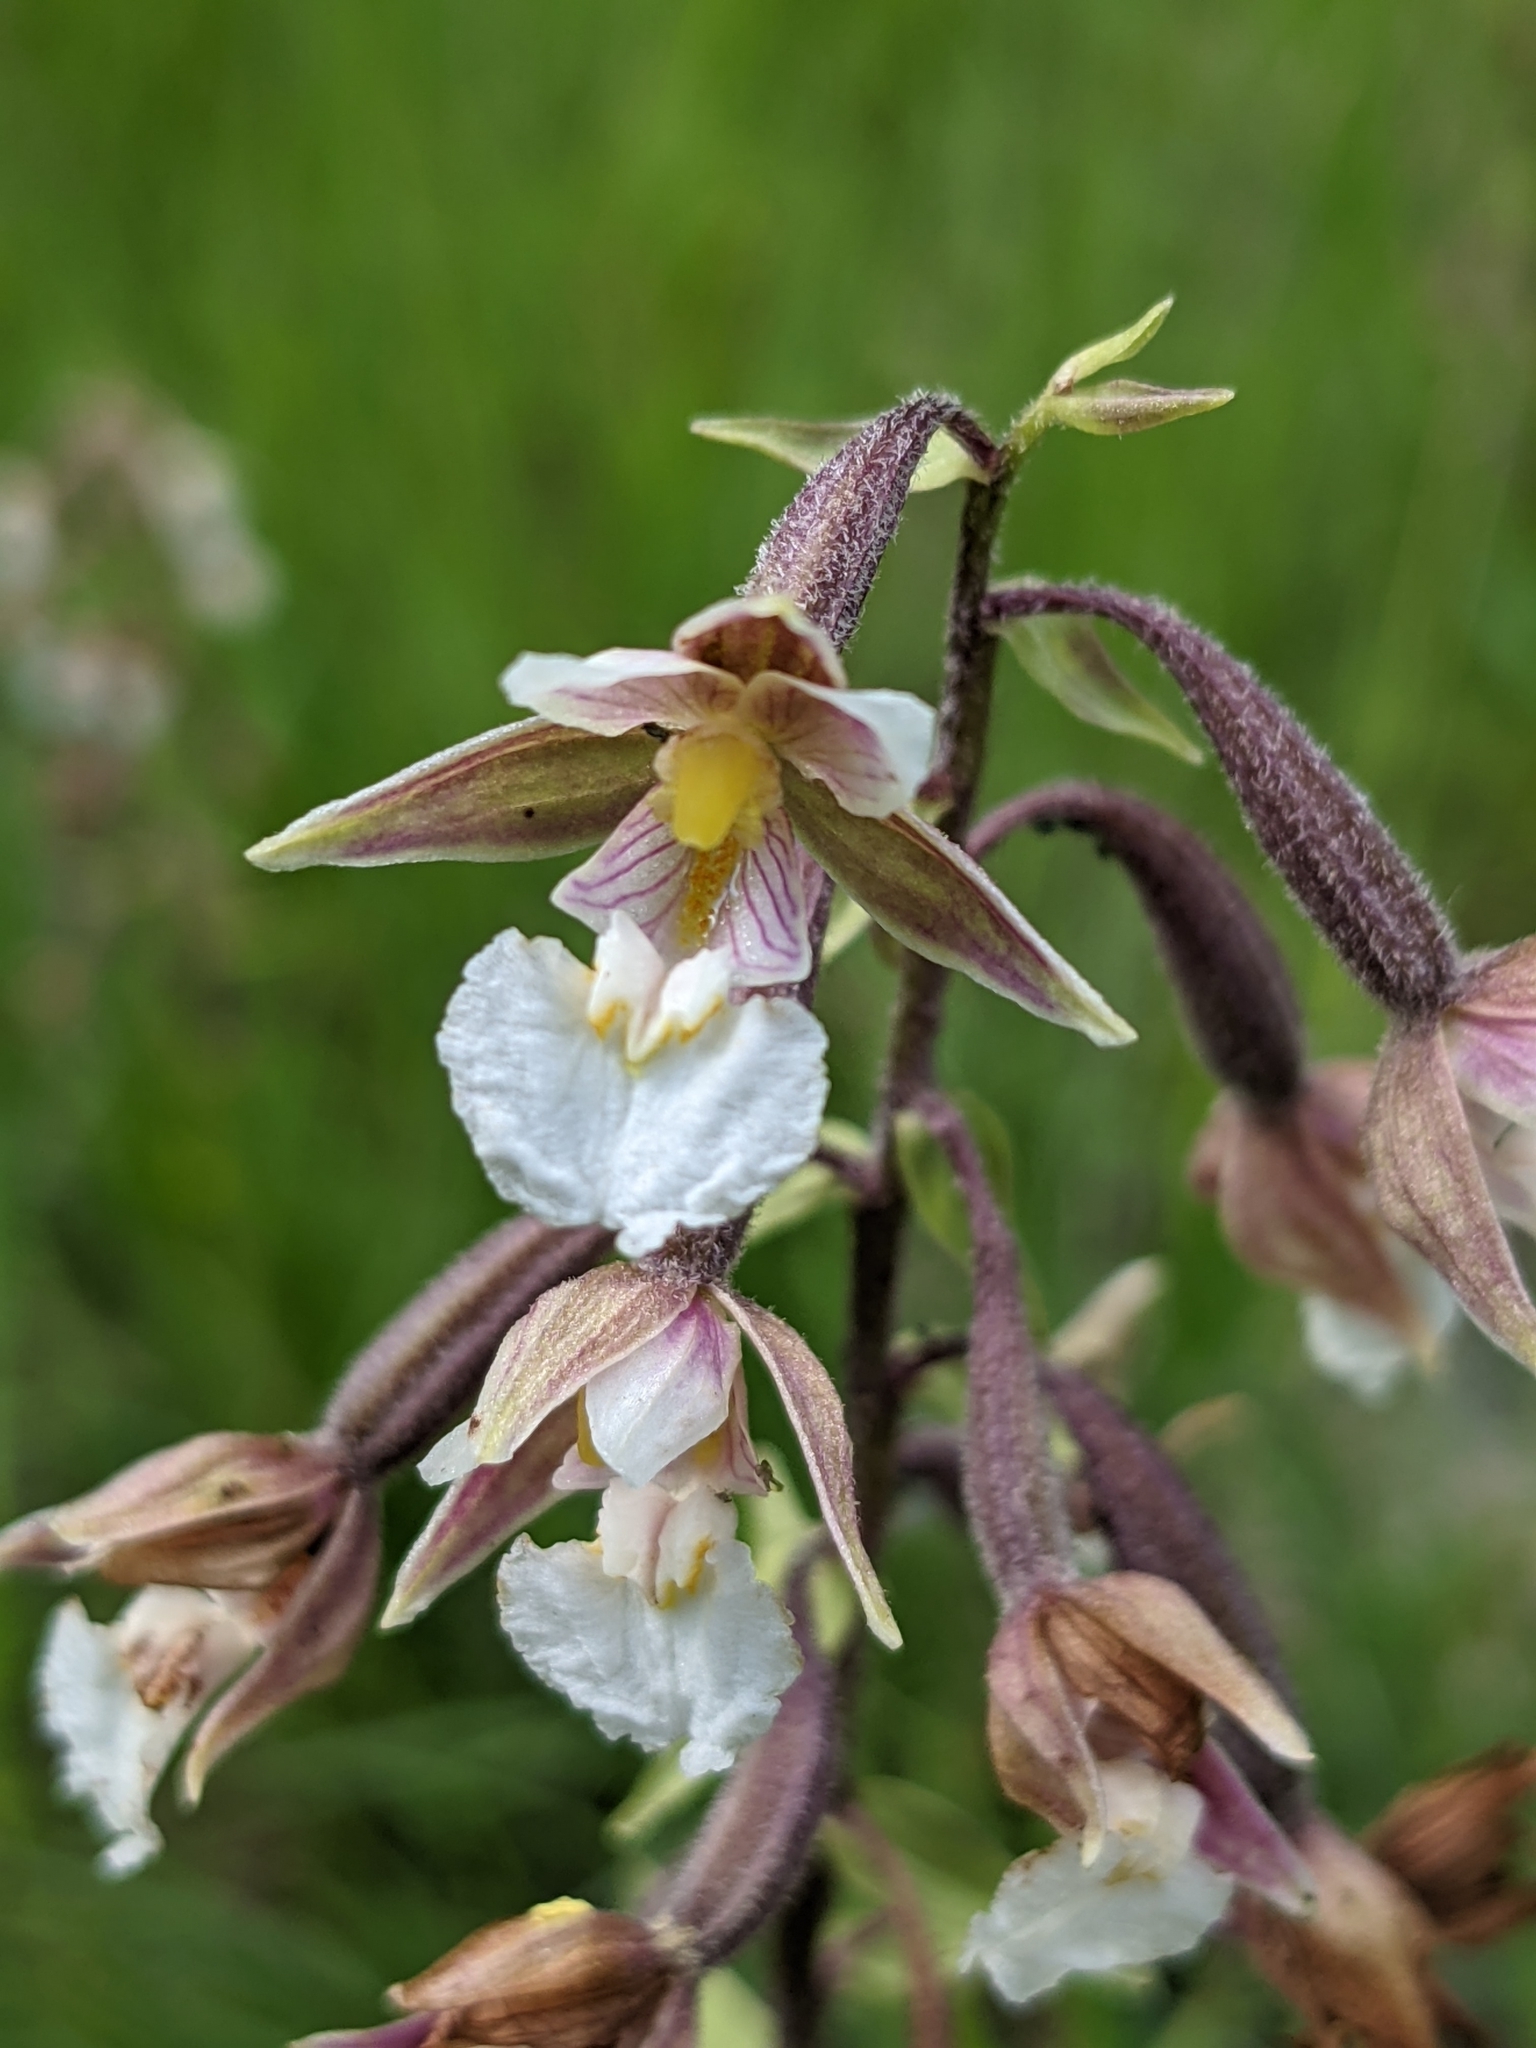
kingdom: Plantae
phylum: Tracheophyta
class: Liliopsida
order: Asparagales
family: Orchidaceae
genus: Epipactis
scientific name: Epipactis palustris
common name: Marsh helleborine
